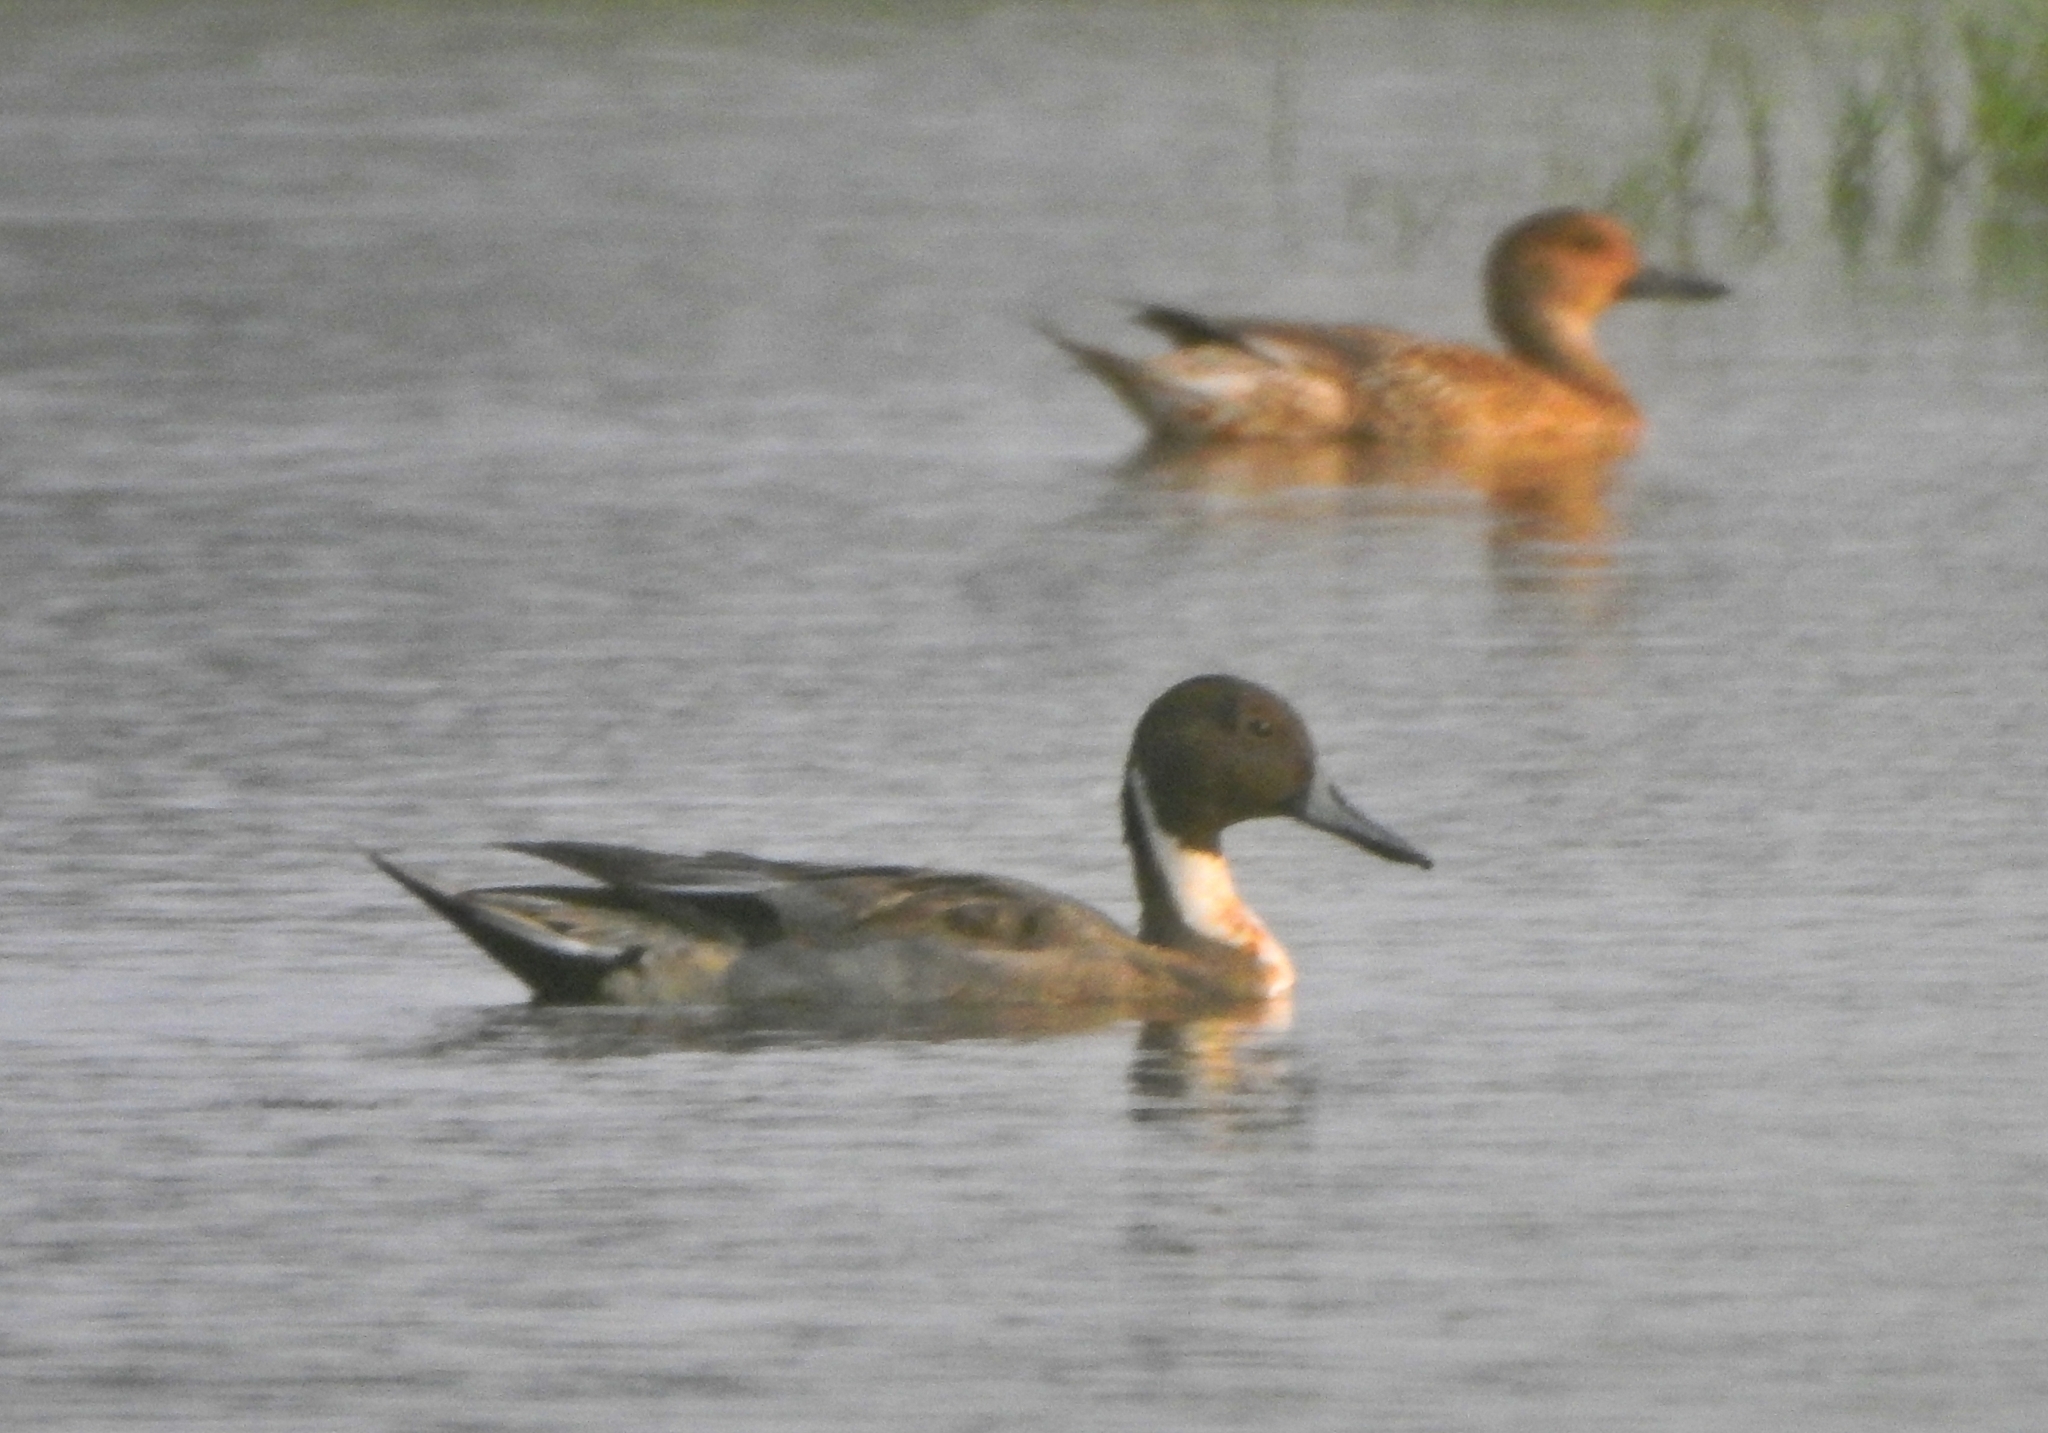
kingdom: Animalia
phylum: Chordata
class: Aves
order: Anseriformes
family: Anatidae
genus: Anas
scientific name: Anas acuta
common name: Northern pintail
